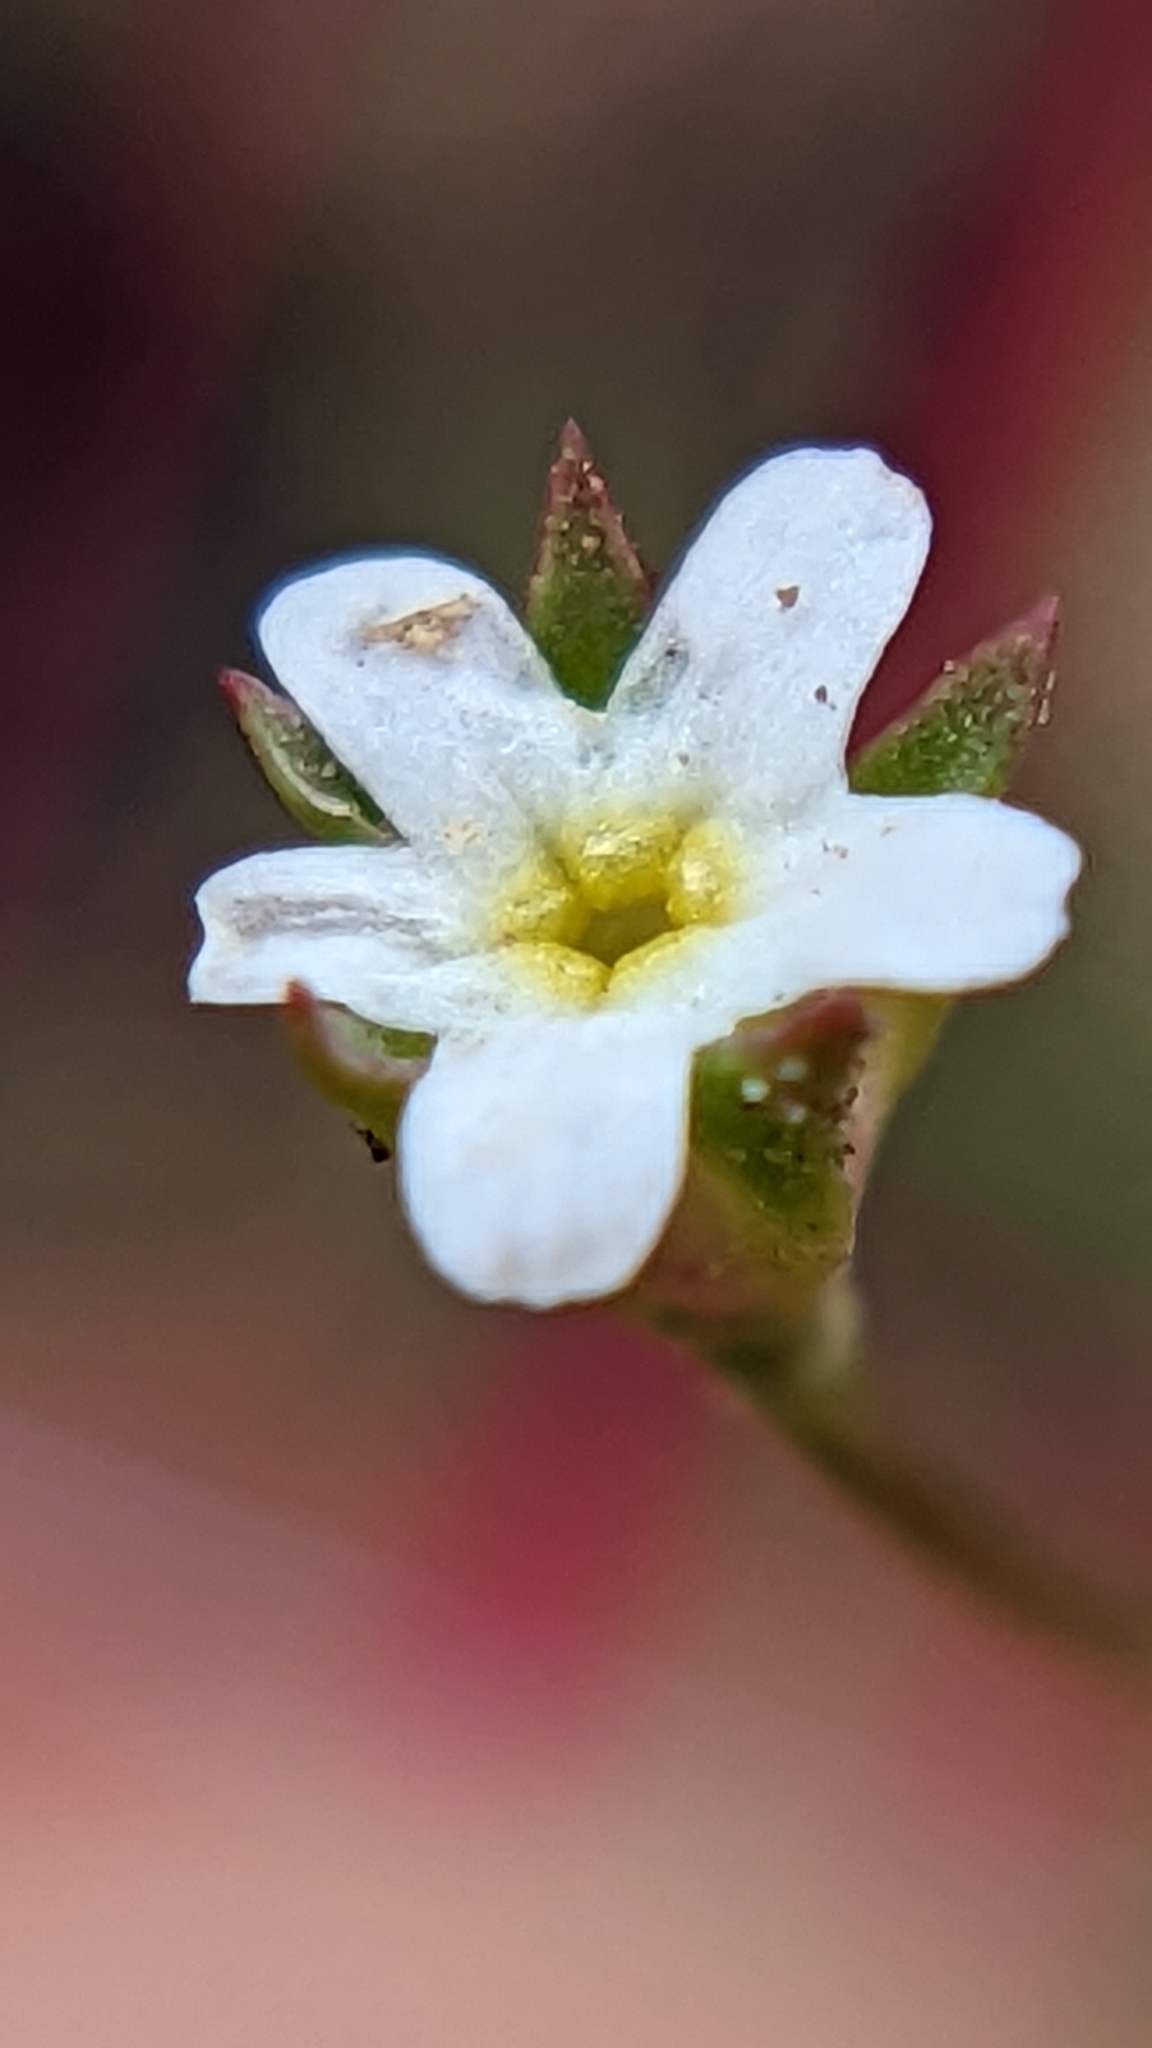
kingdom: Plantae
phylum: Tracheophyta
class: Magnoliopsida
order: Ericales
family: Primulaceae
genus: Androsace
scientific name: Androsace septentrionalis
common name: Hairy northern fairy-candelabra
